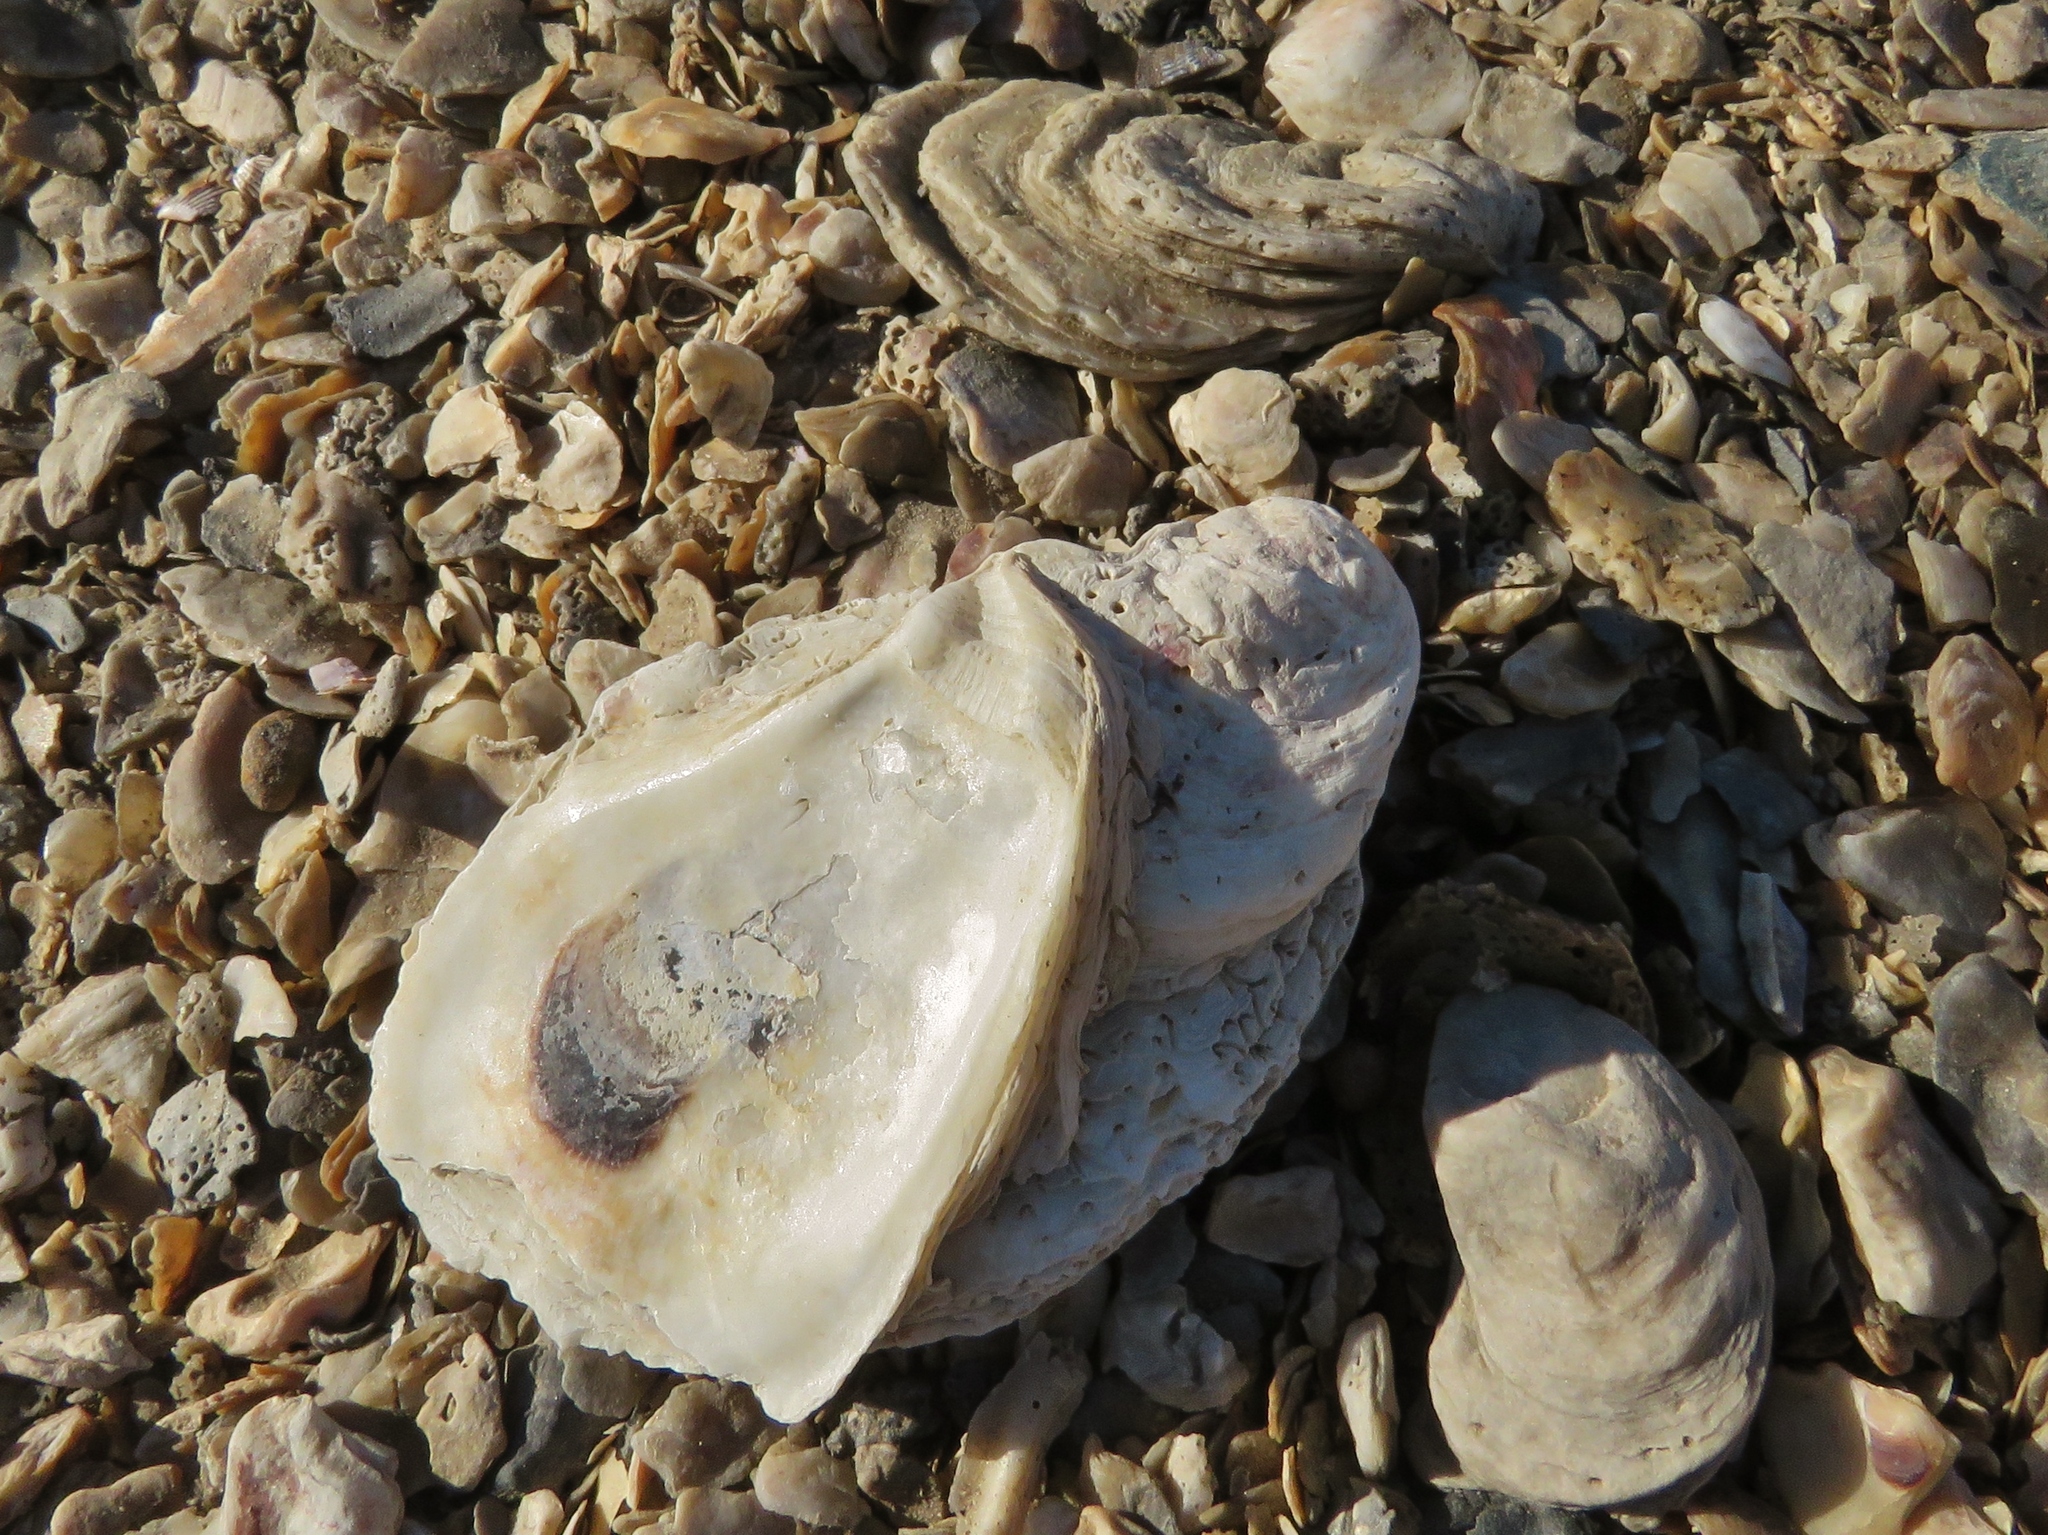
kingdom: Animalia
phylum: Mollusca
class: Bivalvia
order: Ostreida
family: Ostreidae
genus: Crassostrea
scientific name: Crassostrea virginica
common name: American oyster
